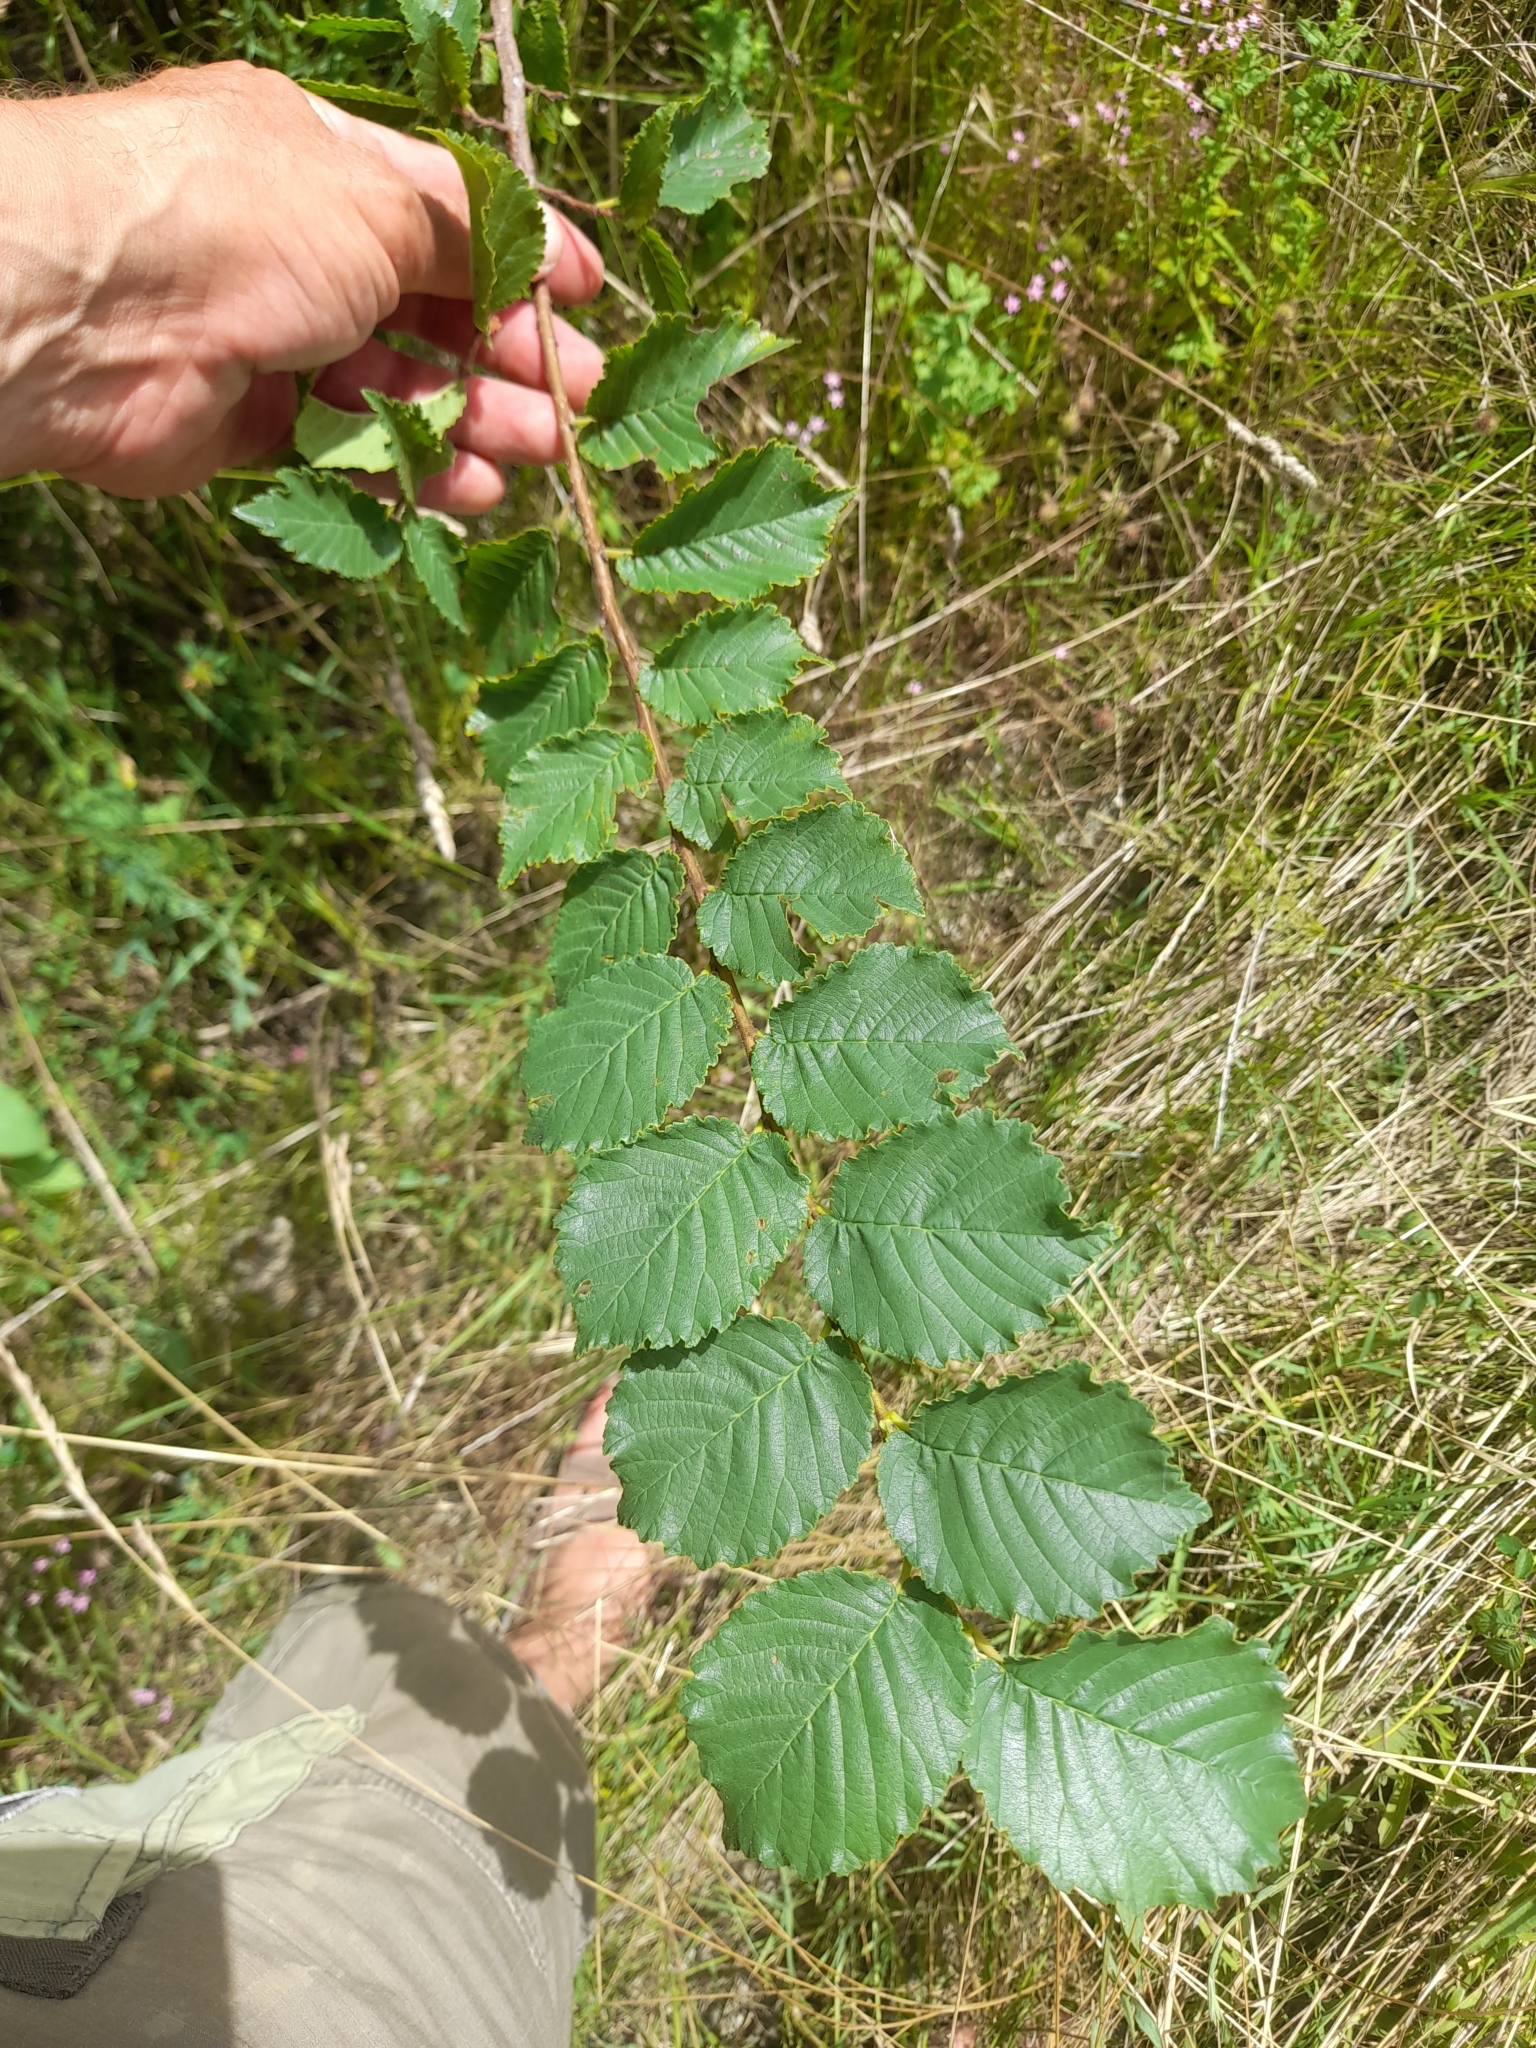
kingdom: Plantae
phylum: Tracheophyta
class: Magnoliopsida
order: Rosales
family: Ulmaceae
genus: Ulmus
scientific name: Ulmus minor
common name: Small-leaved elm
